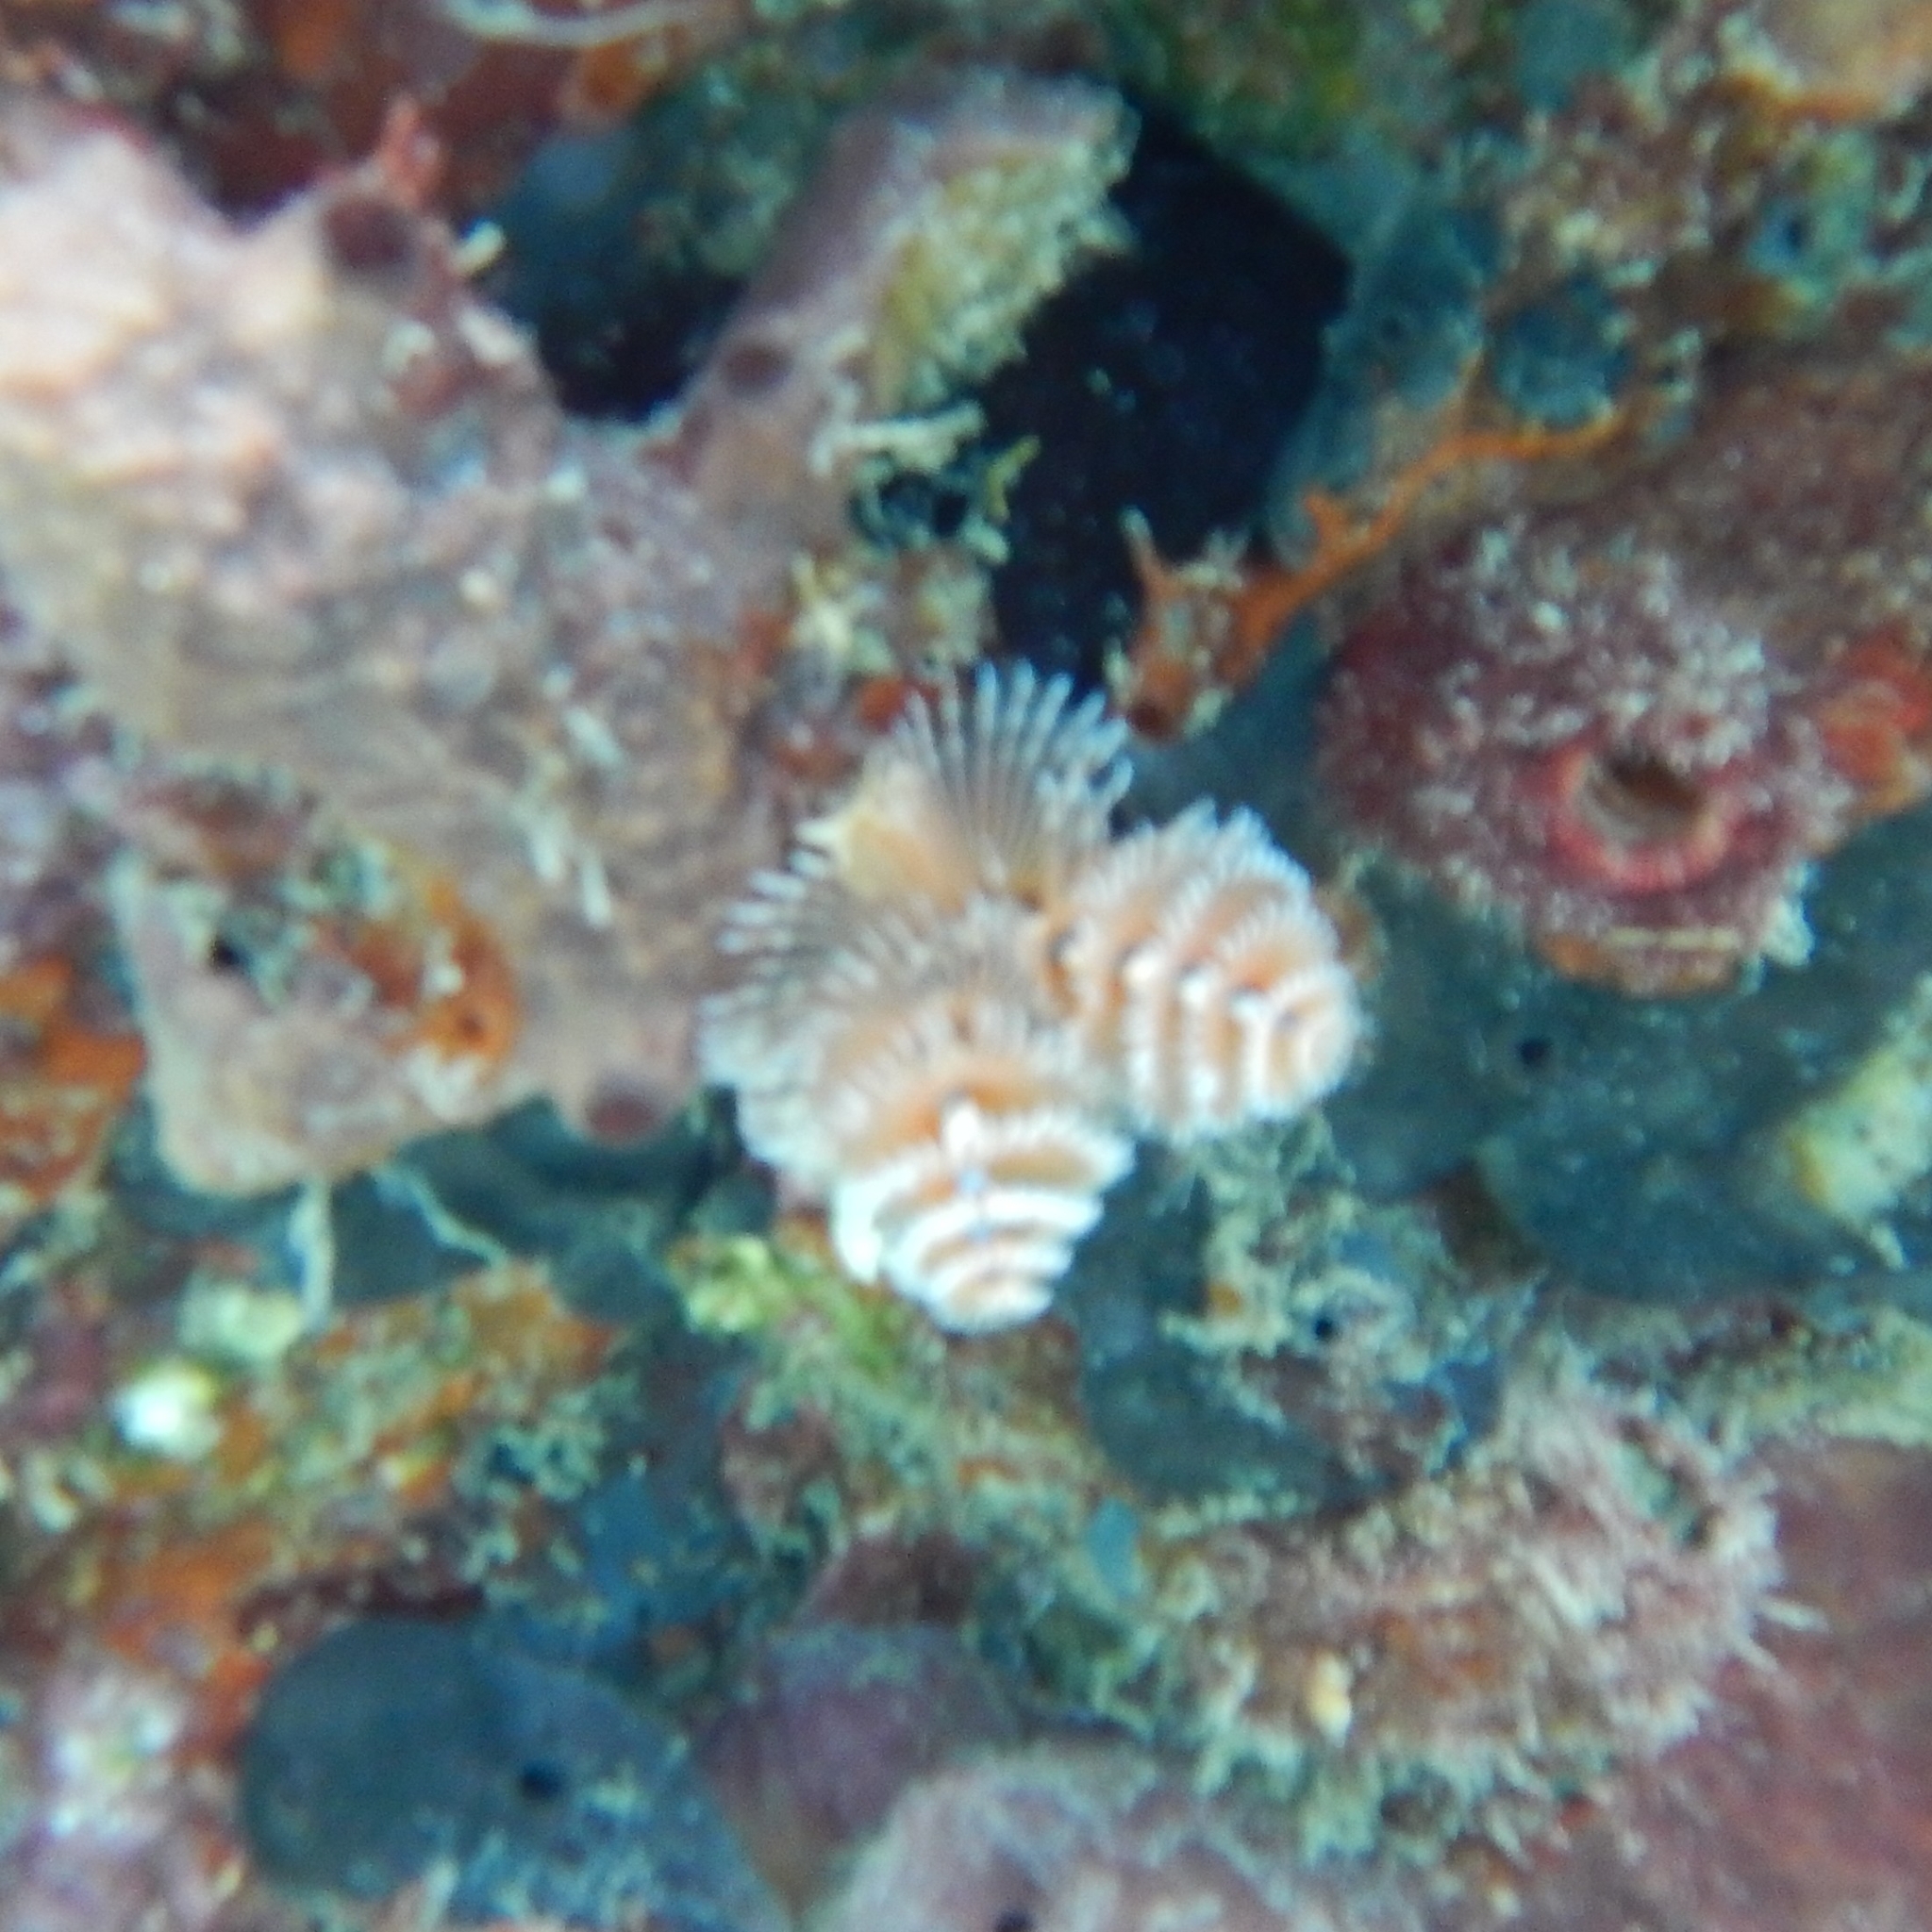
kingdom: Animalia
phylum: Annelida
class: Polychaeta
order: Sabellida
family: Serpulidae
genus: Spirobranchus
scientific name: Spirobranchus giganteus
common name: Christmas tree worm
